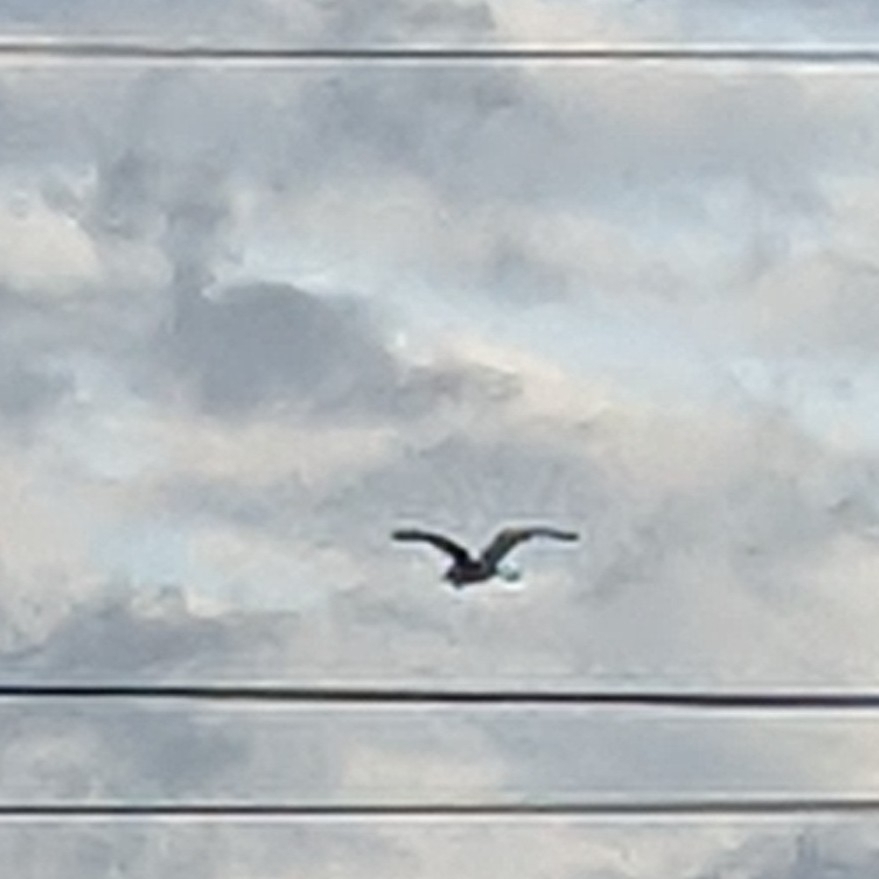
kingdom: Animalia
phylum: Chordata
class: Aves
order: Pelecaniformes
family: Ardeidae
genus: Ardea
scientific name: Ardea herodias
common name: Great blue heron
